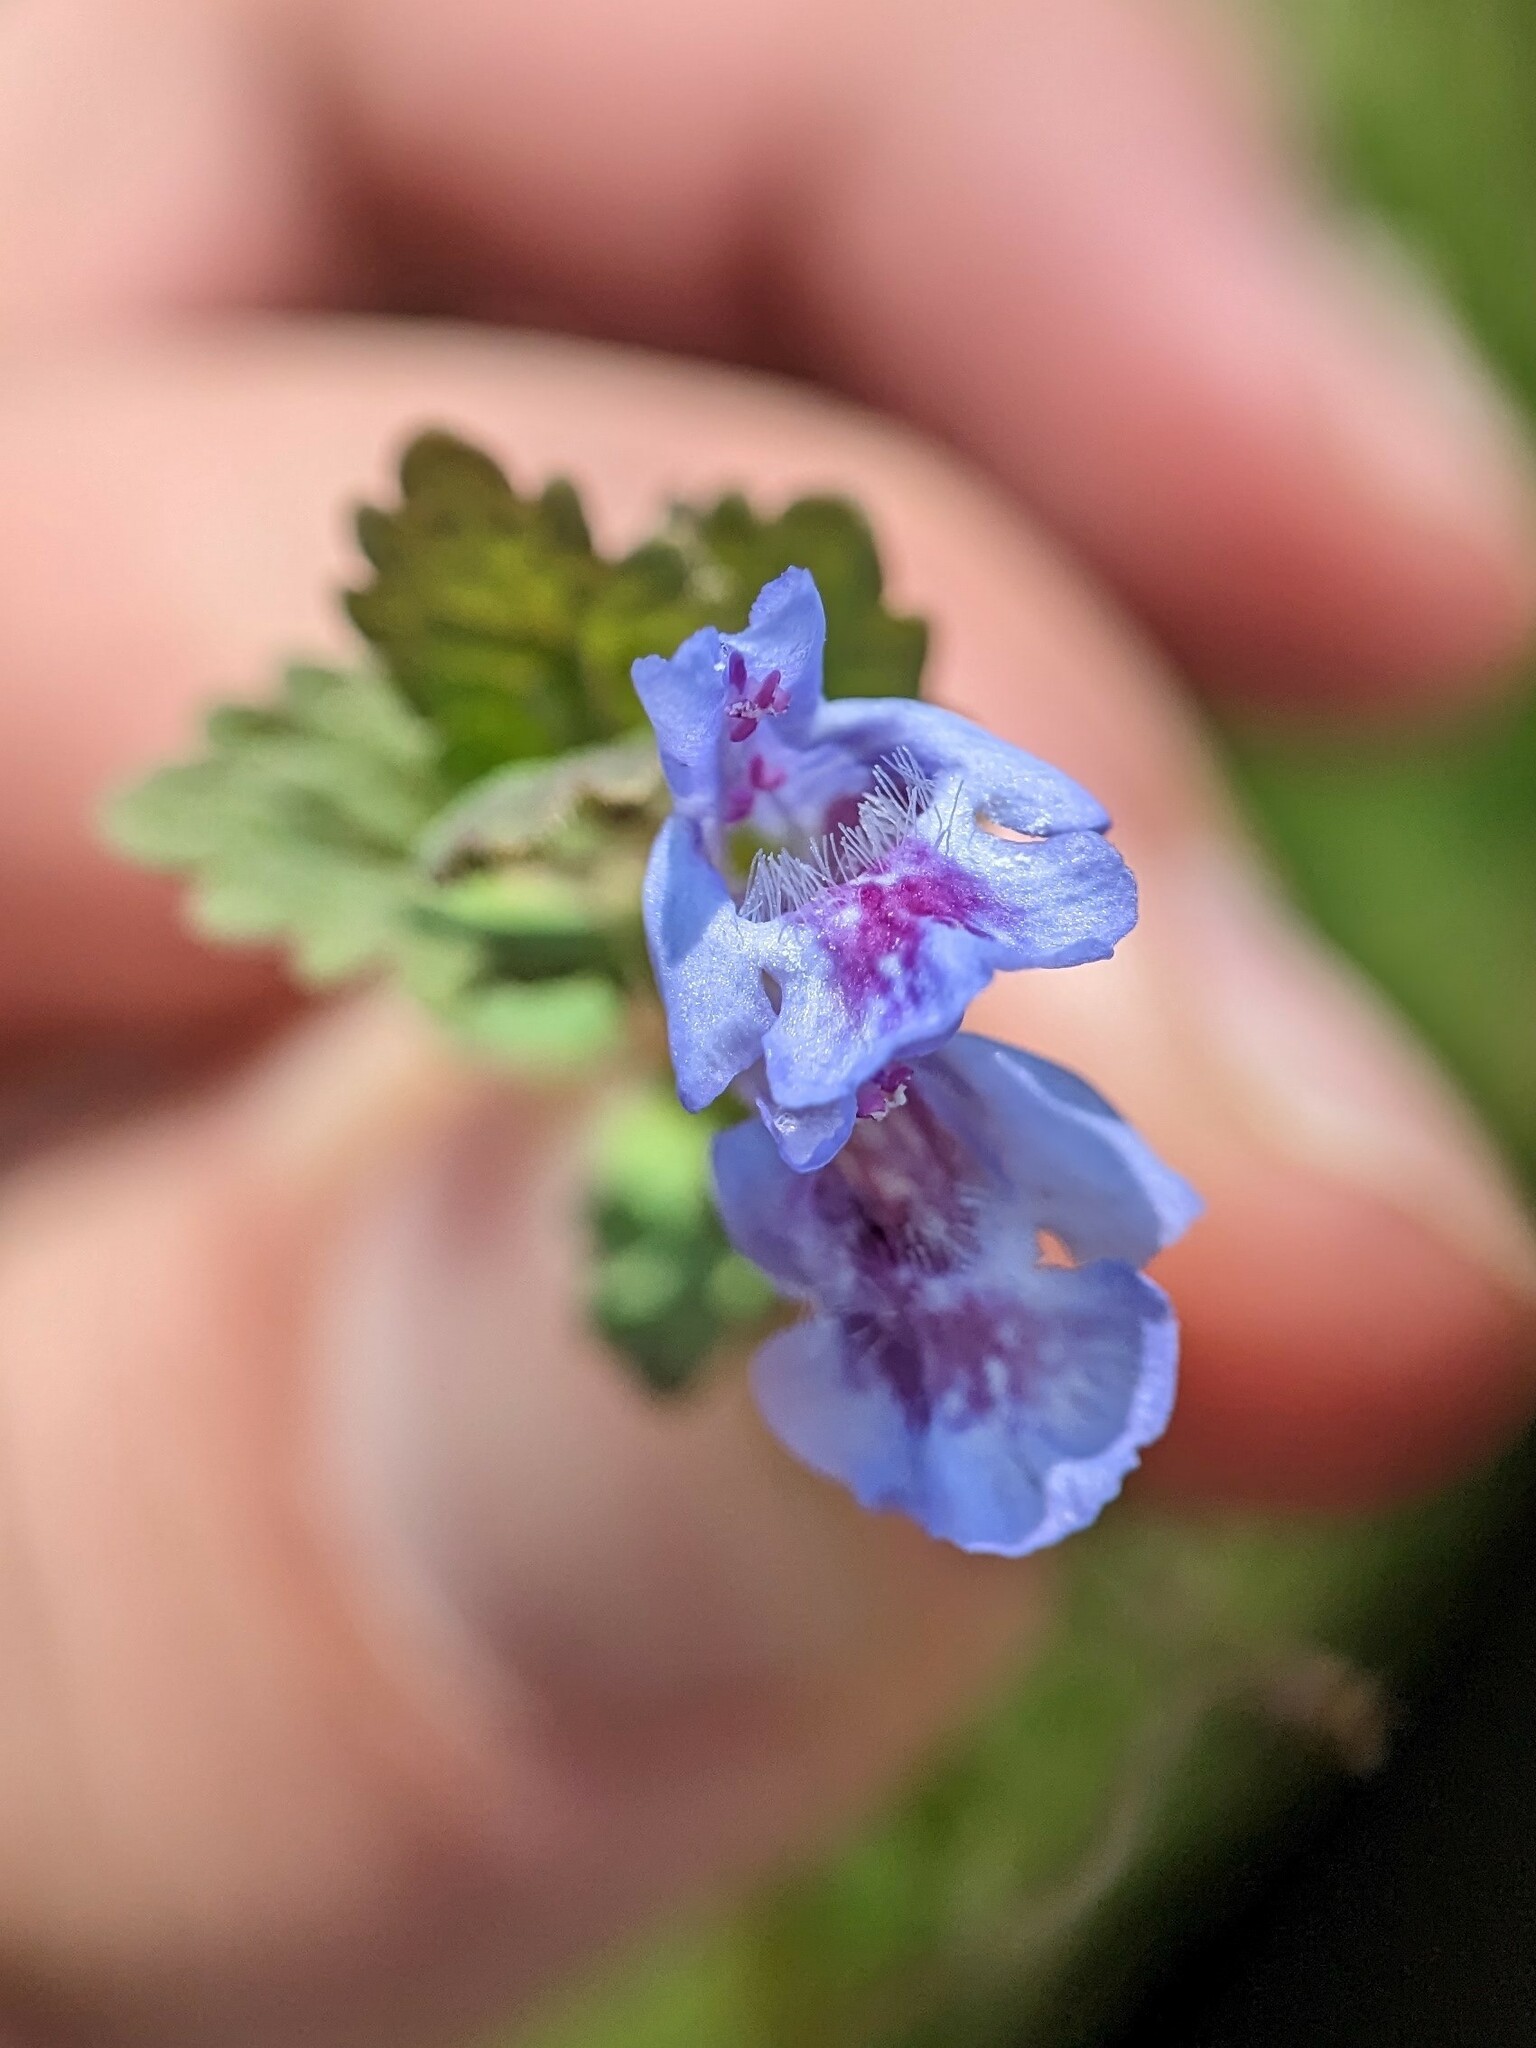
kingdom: Plantae
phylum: Tracheophyta
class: Magnoliopsida
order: Lamiales
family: Lamiaceae
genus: Glechoma
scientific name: Glechoma hederacea
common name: Ground ivy
